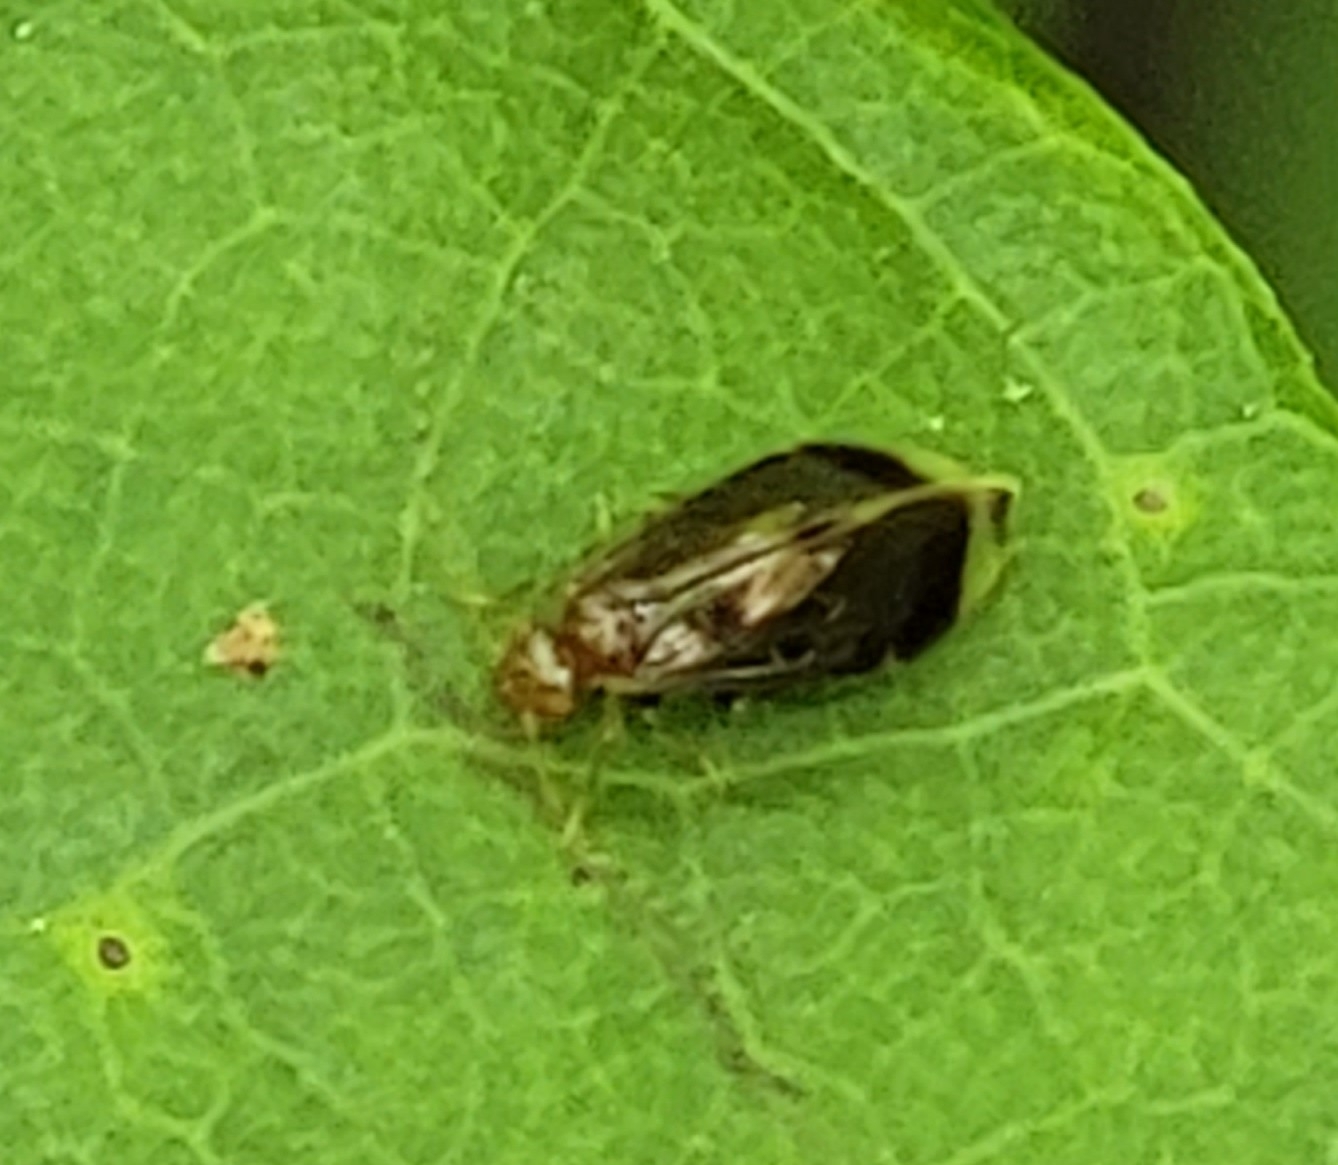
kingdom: Animalia
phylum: Arthropoda
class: Insecta
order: Psocodea
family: Amphipsocidae
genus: Polypsocus
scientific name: Polypsocus corruptus
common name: Corrupt barklouse
